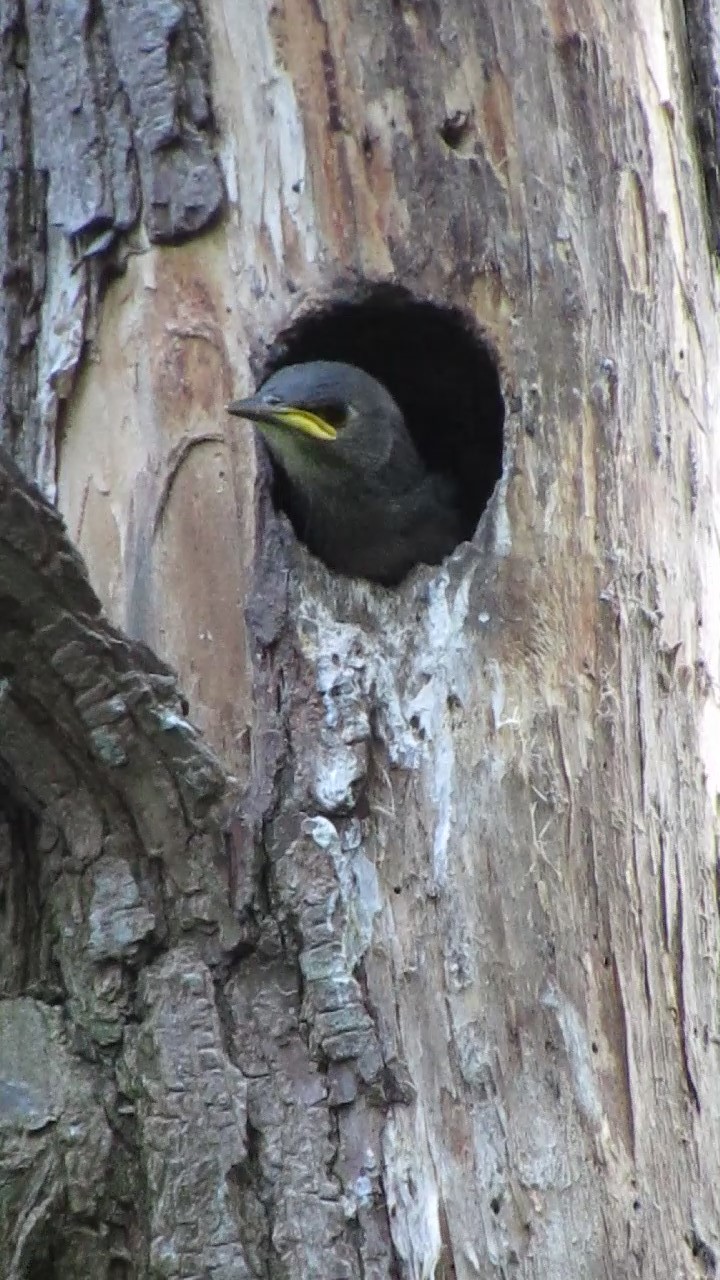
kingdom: Animalia
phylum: Chordata
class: Aves
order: Passeriformes
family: Sturnidae
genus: Sturnus
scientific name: Sturnus vulgaris
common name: Common starling
